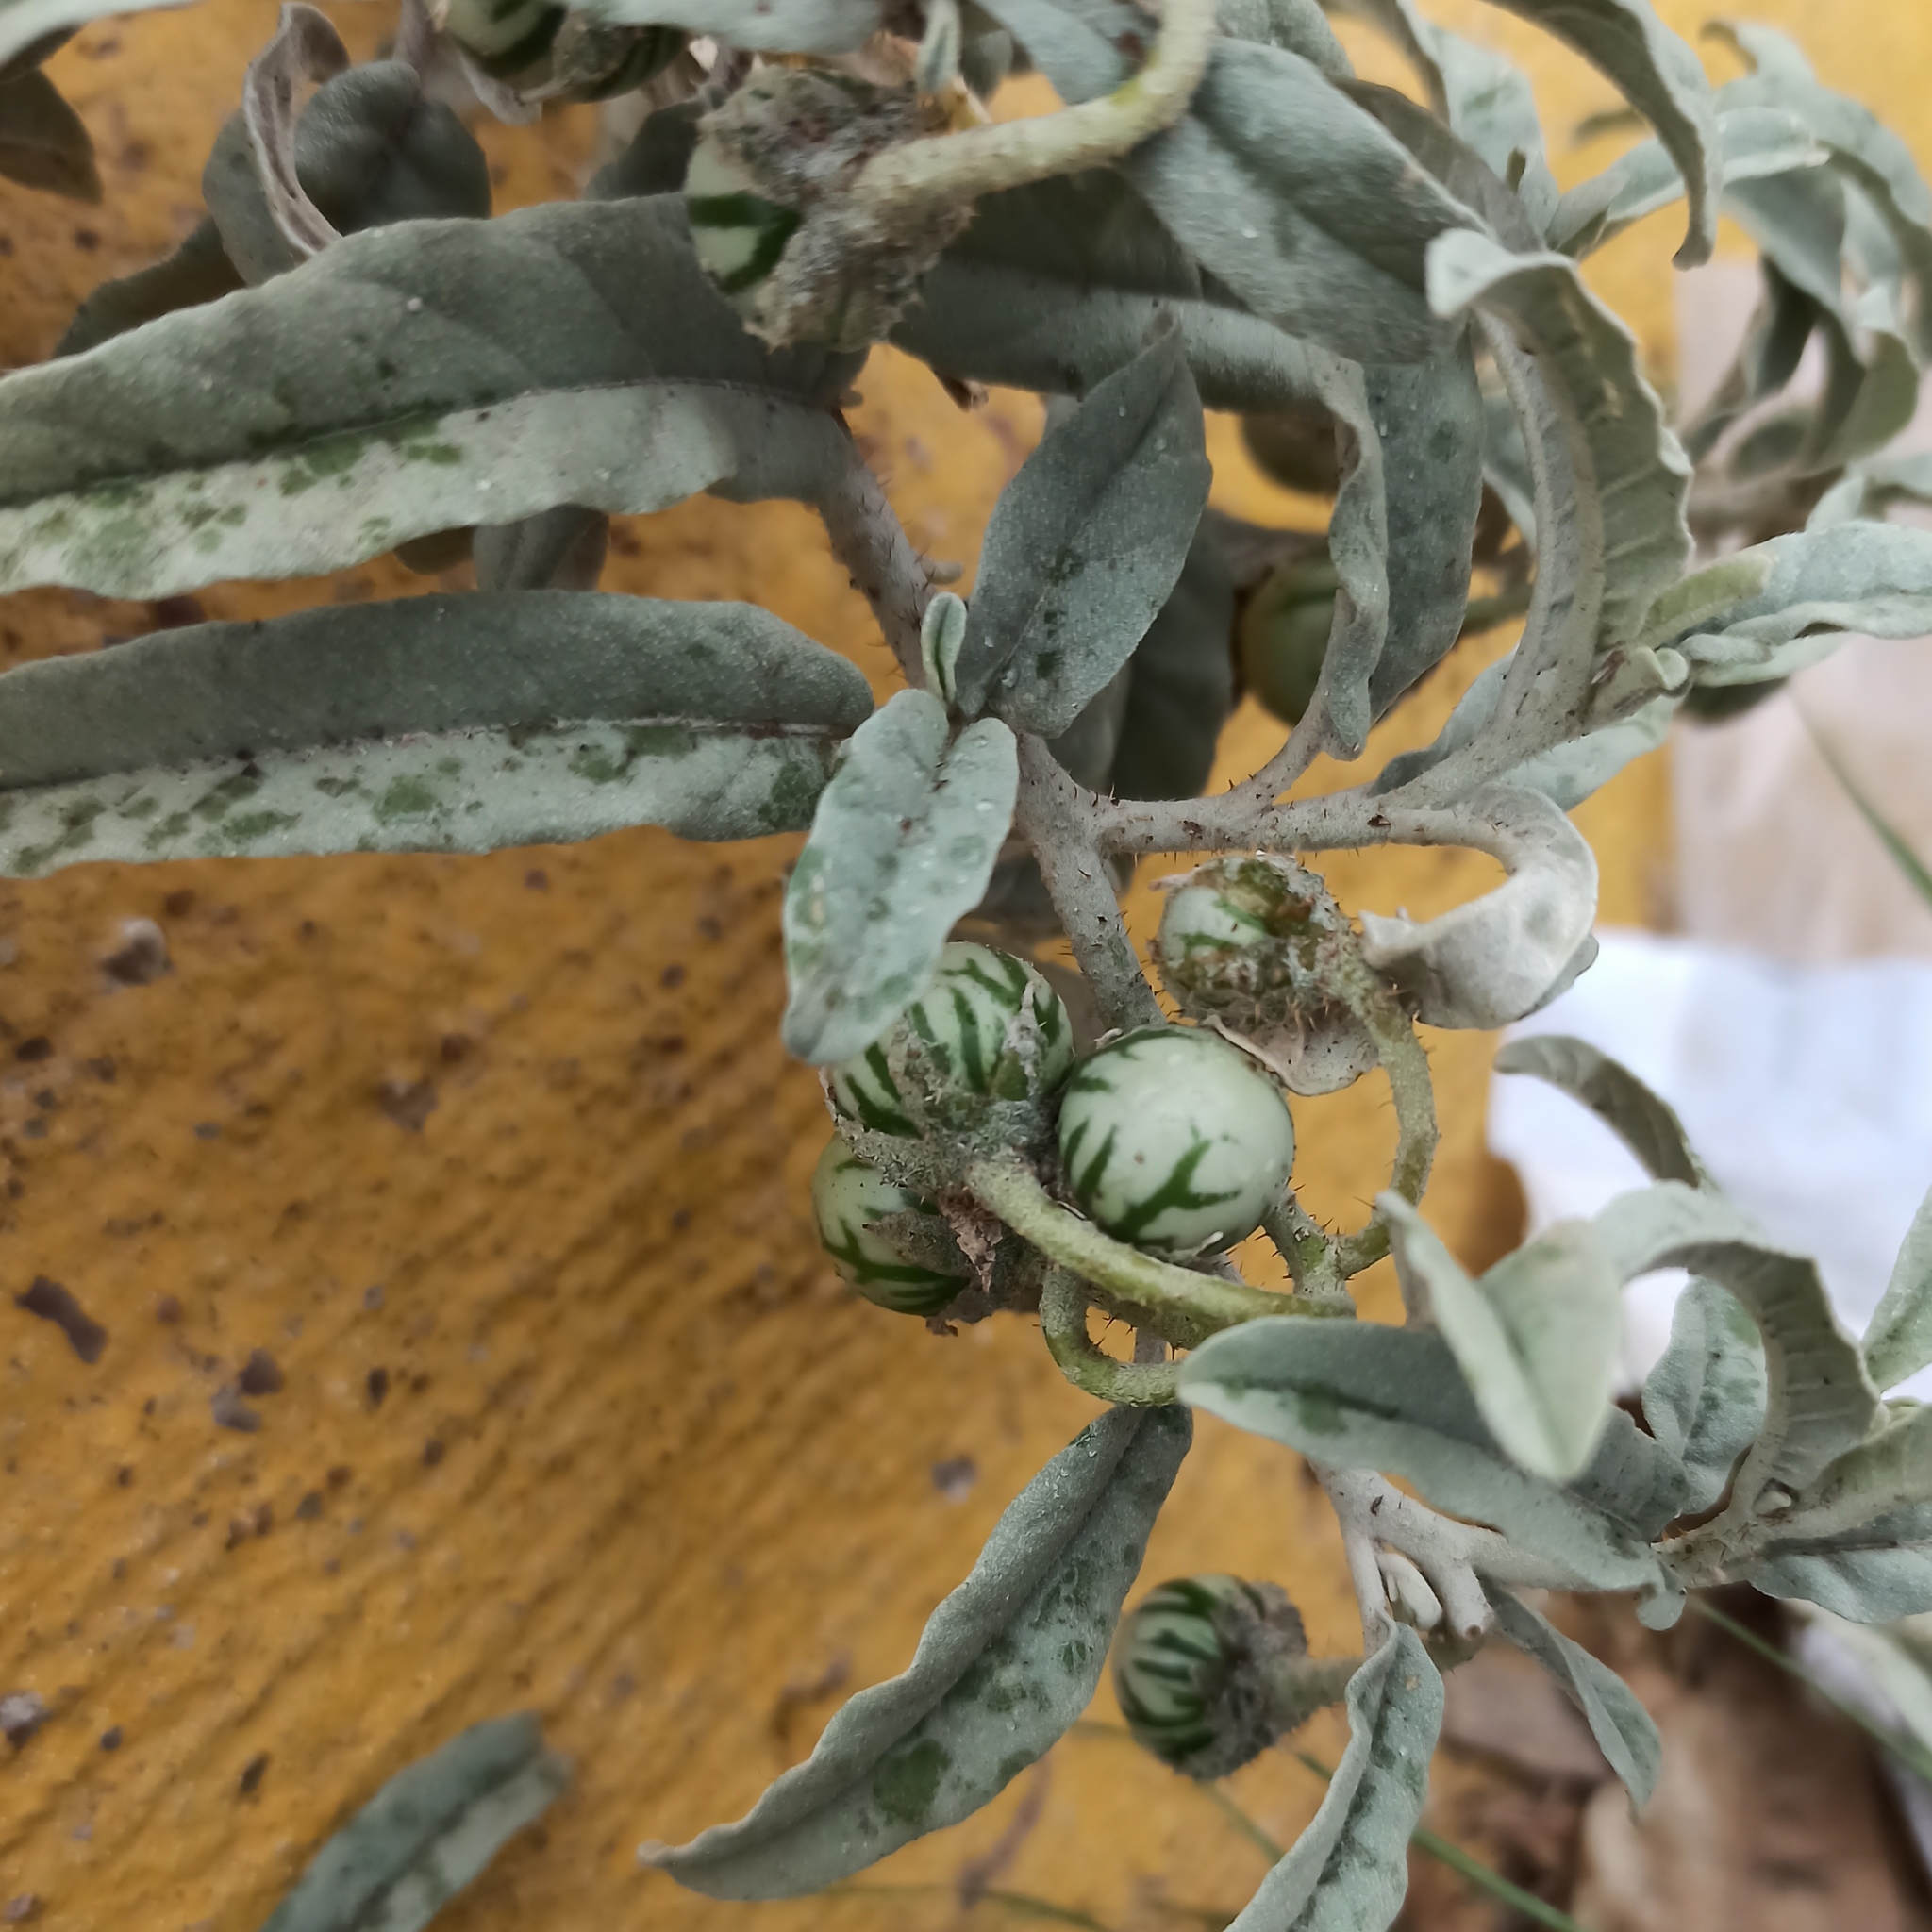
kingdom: Plantae
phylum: Tracheophyta
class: Magnoliopsida
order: Solanales
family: Solanaceae
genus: Solanum
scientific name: Solanum elaeagnifolium
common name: Silverleaf nightshade
